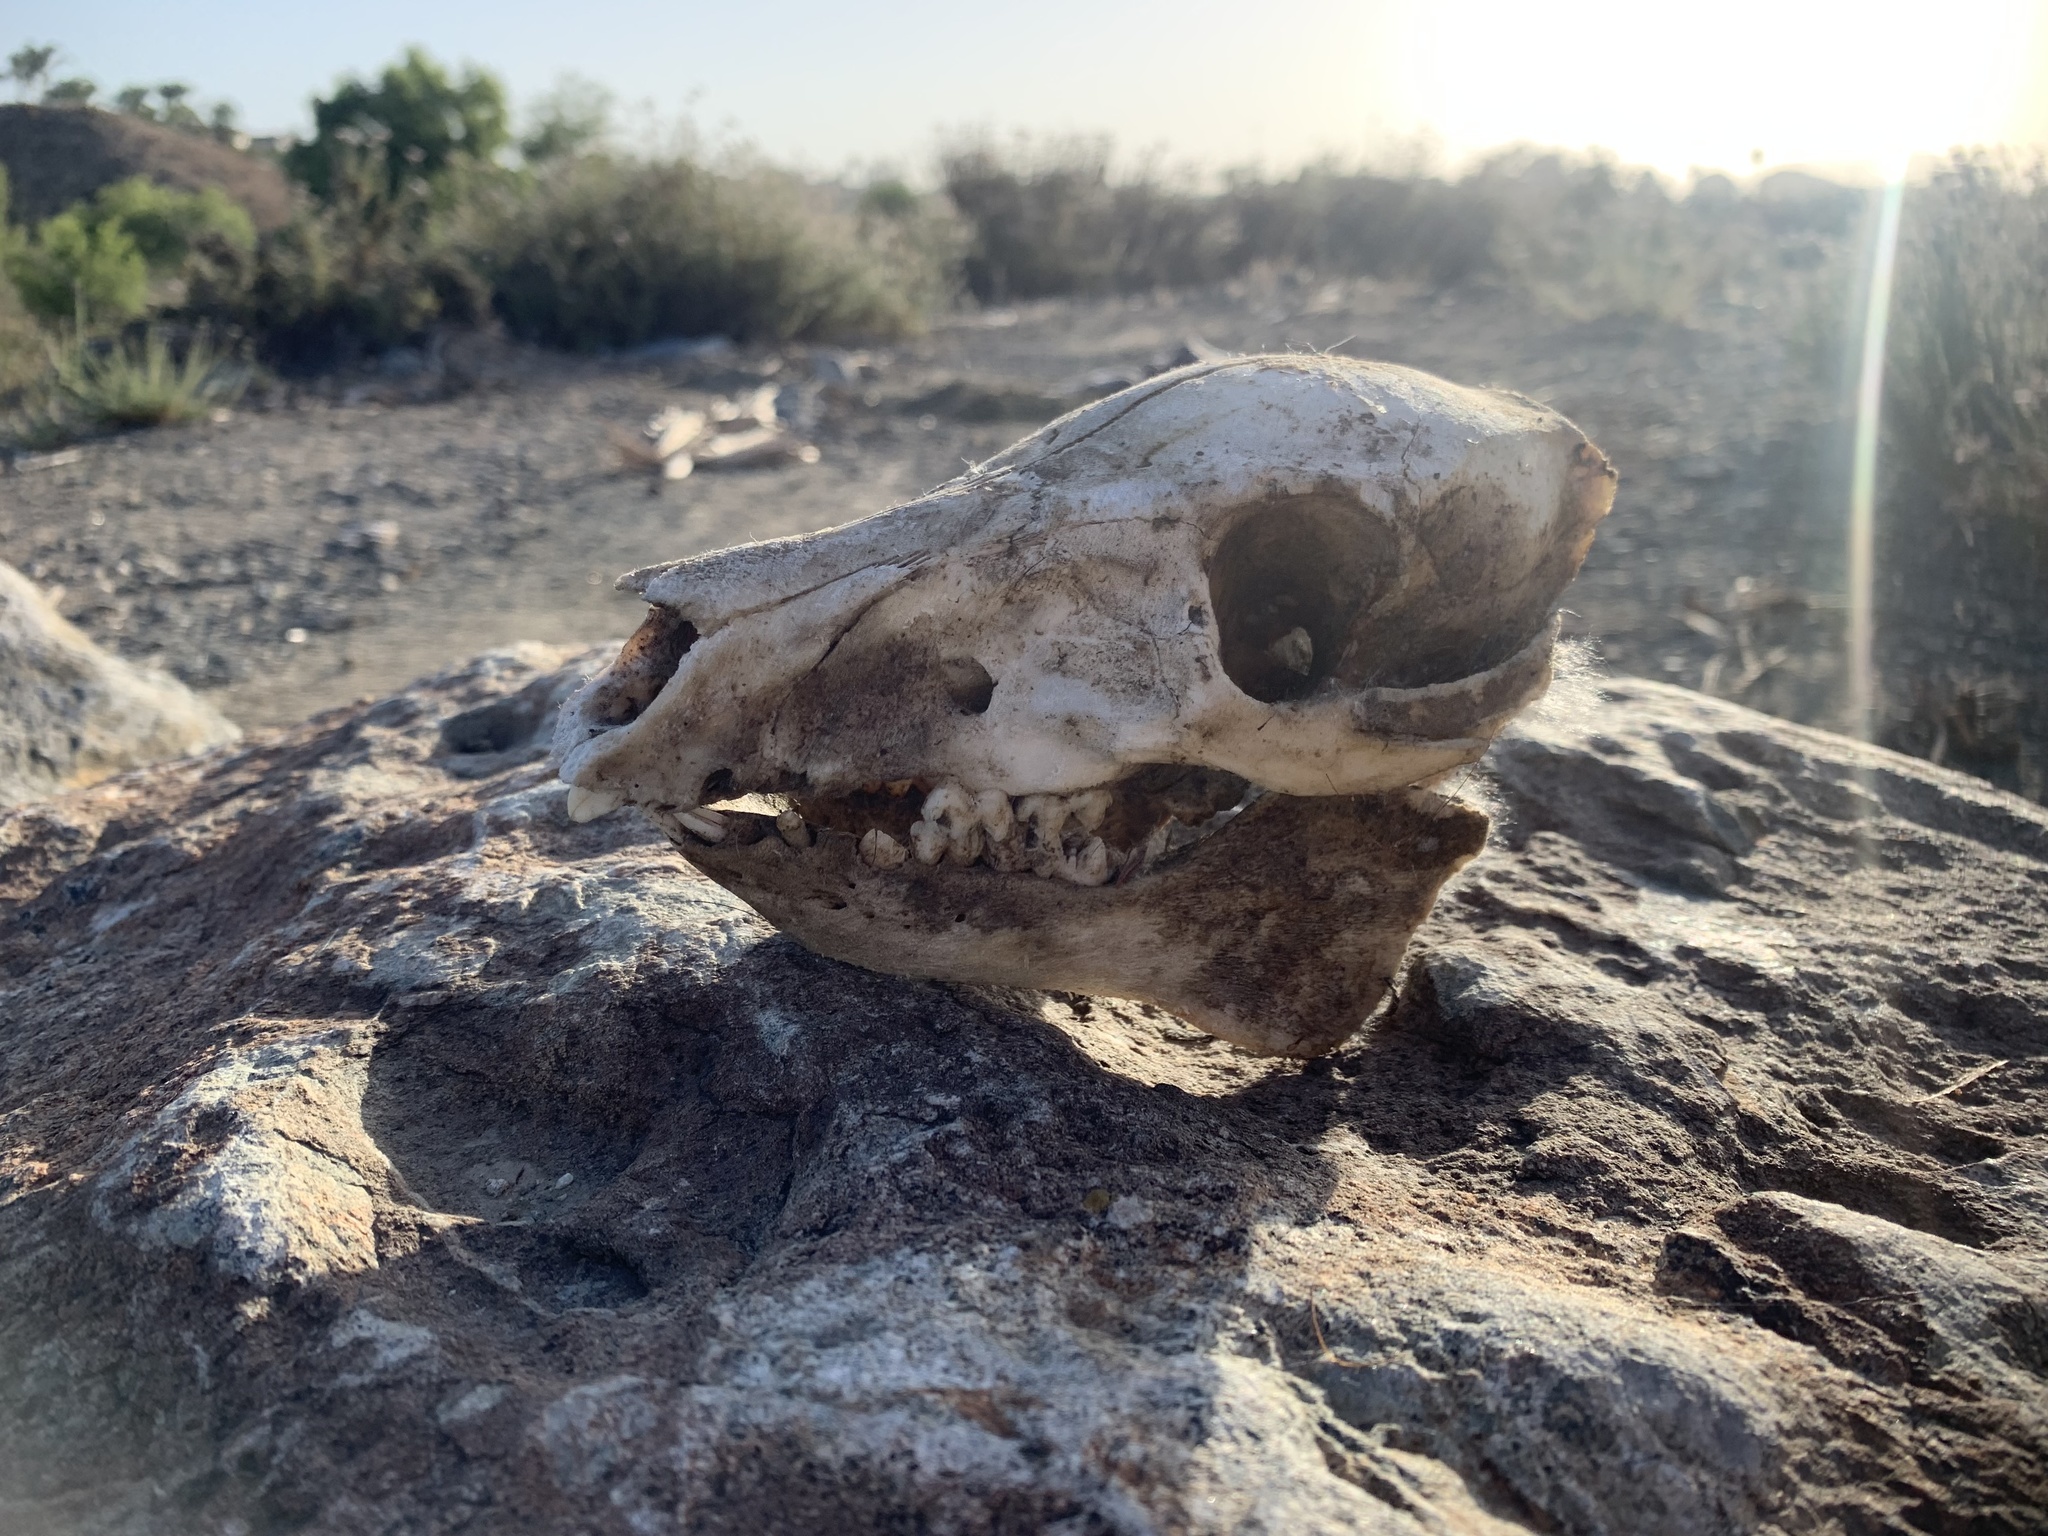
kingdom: Animalia
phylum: Chordata
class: Mammalia
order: Artiodactyla
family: Suidae
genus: Sus
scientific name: Sus scrofa
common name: Wild boar
